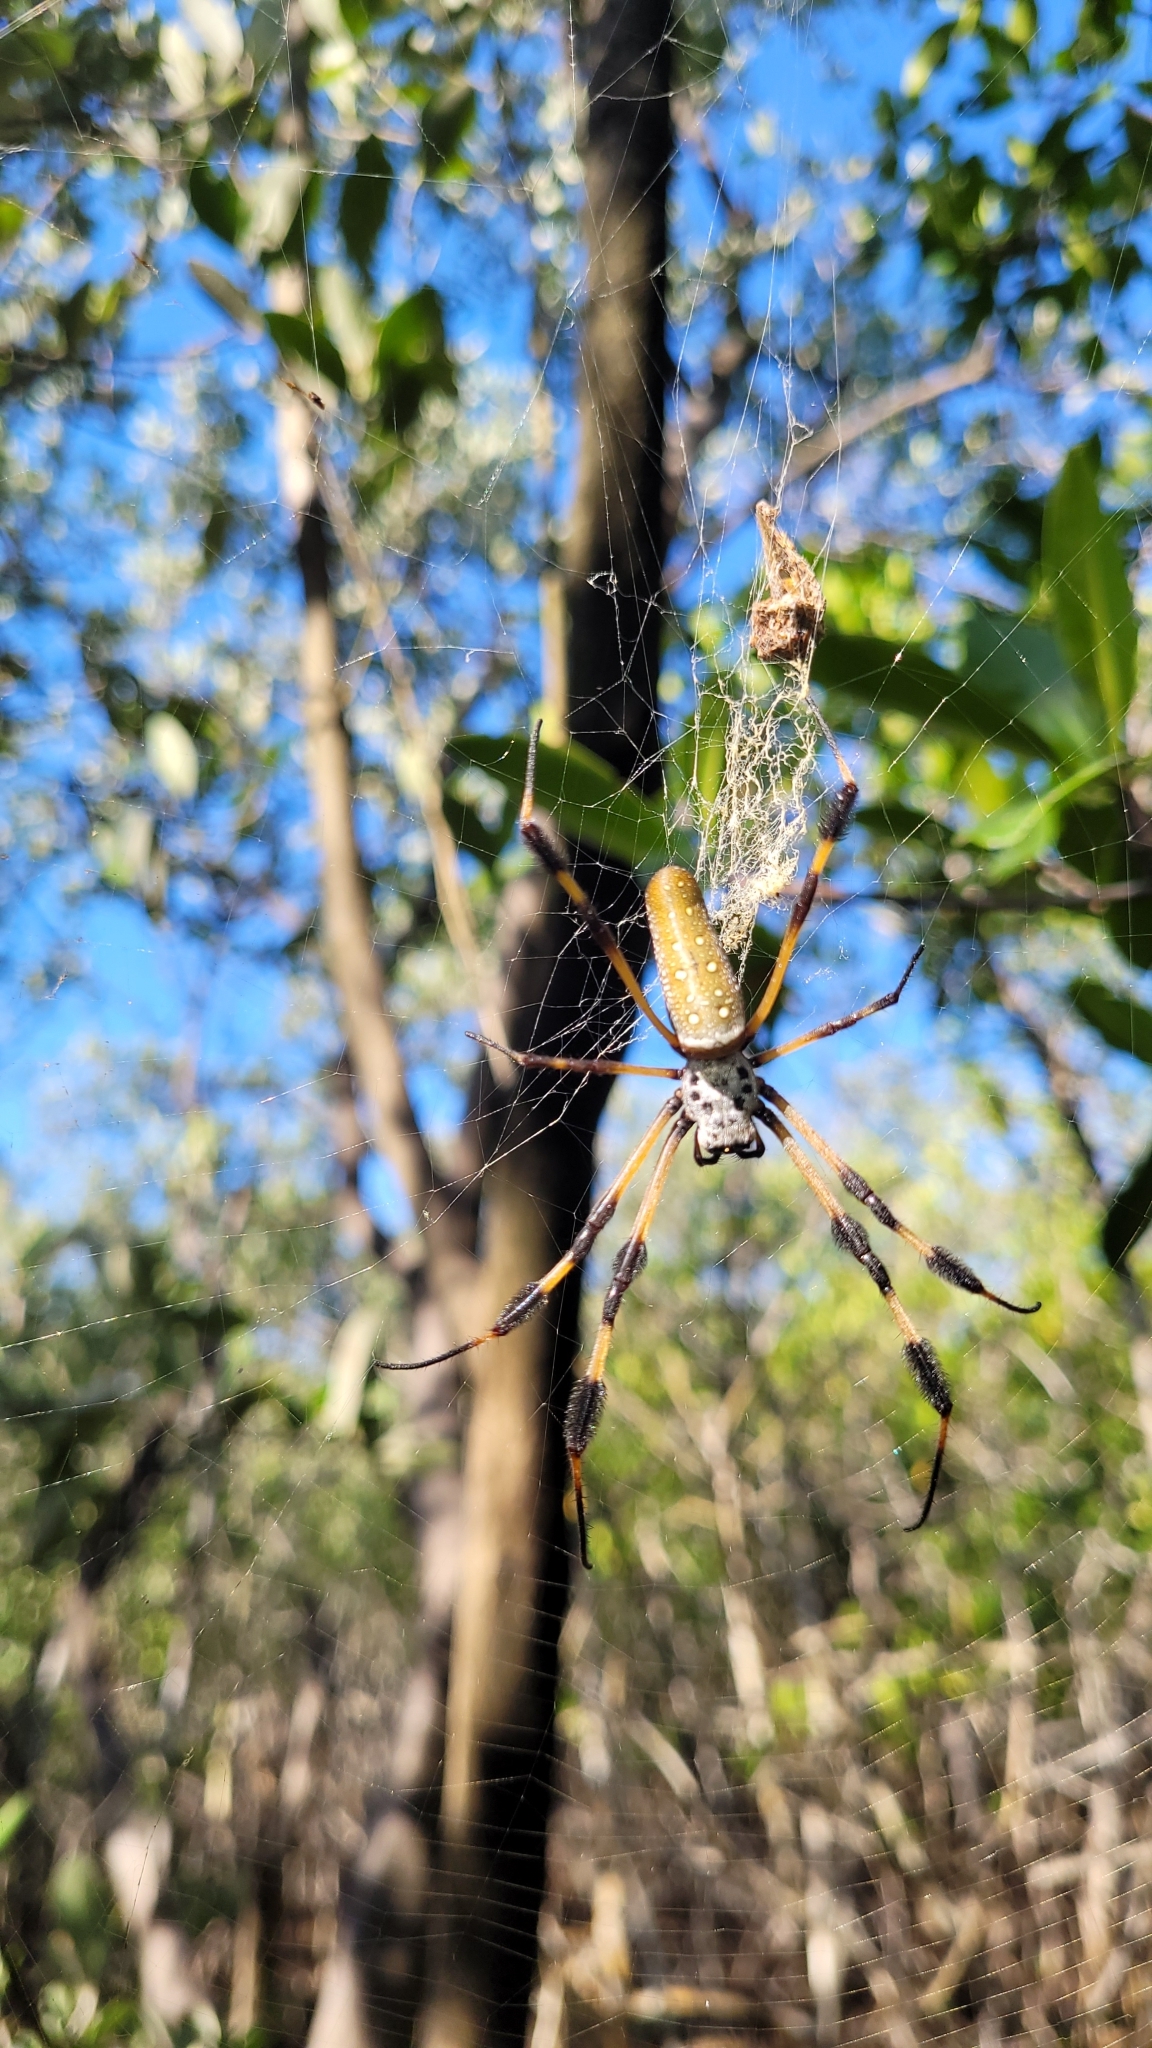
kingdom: Animalia
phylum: Arthropoda
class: Arachnida
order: Araneae
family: Araneidae
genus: Trichonephila
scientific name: Trichonephila clavipes
